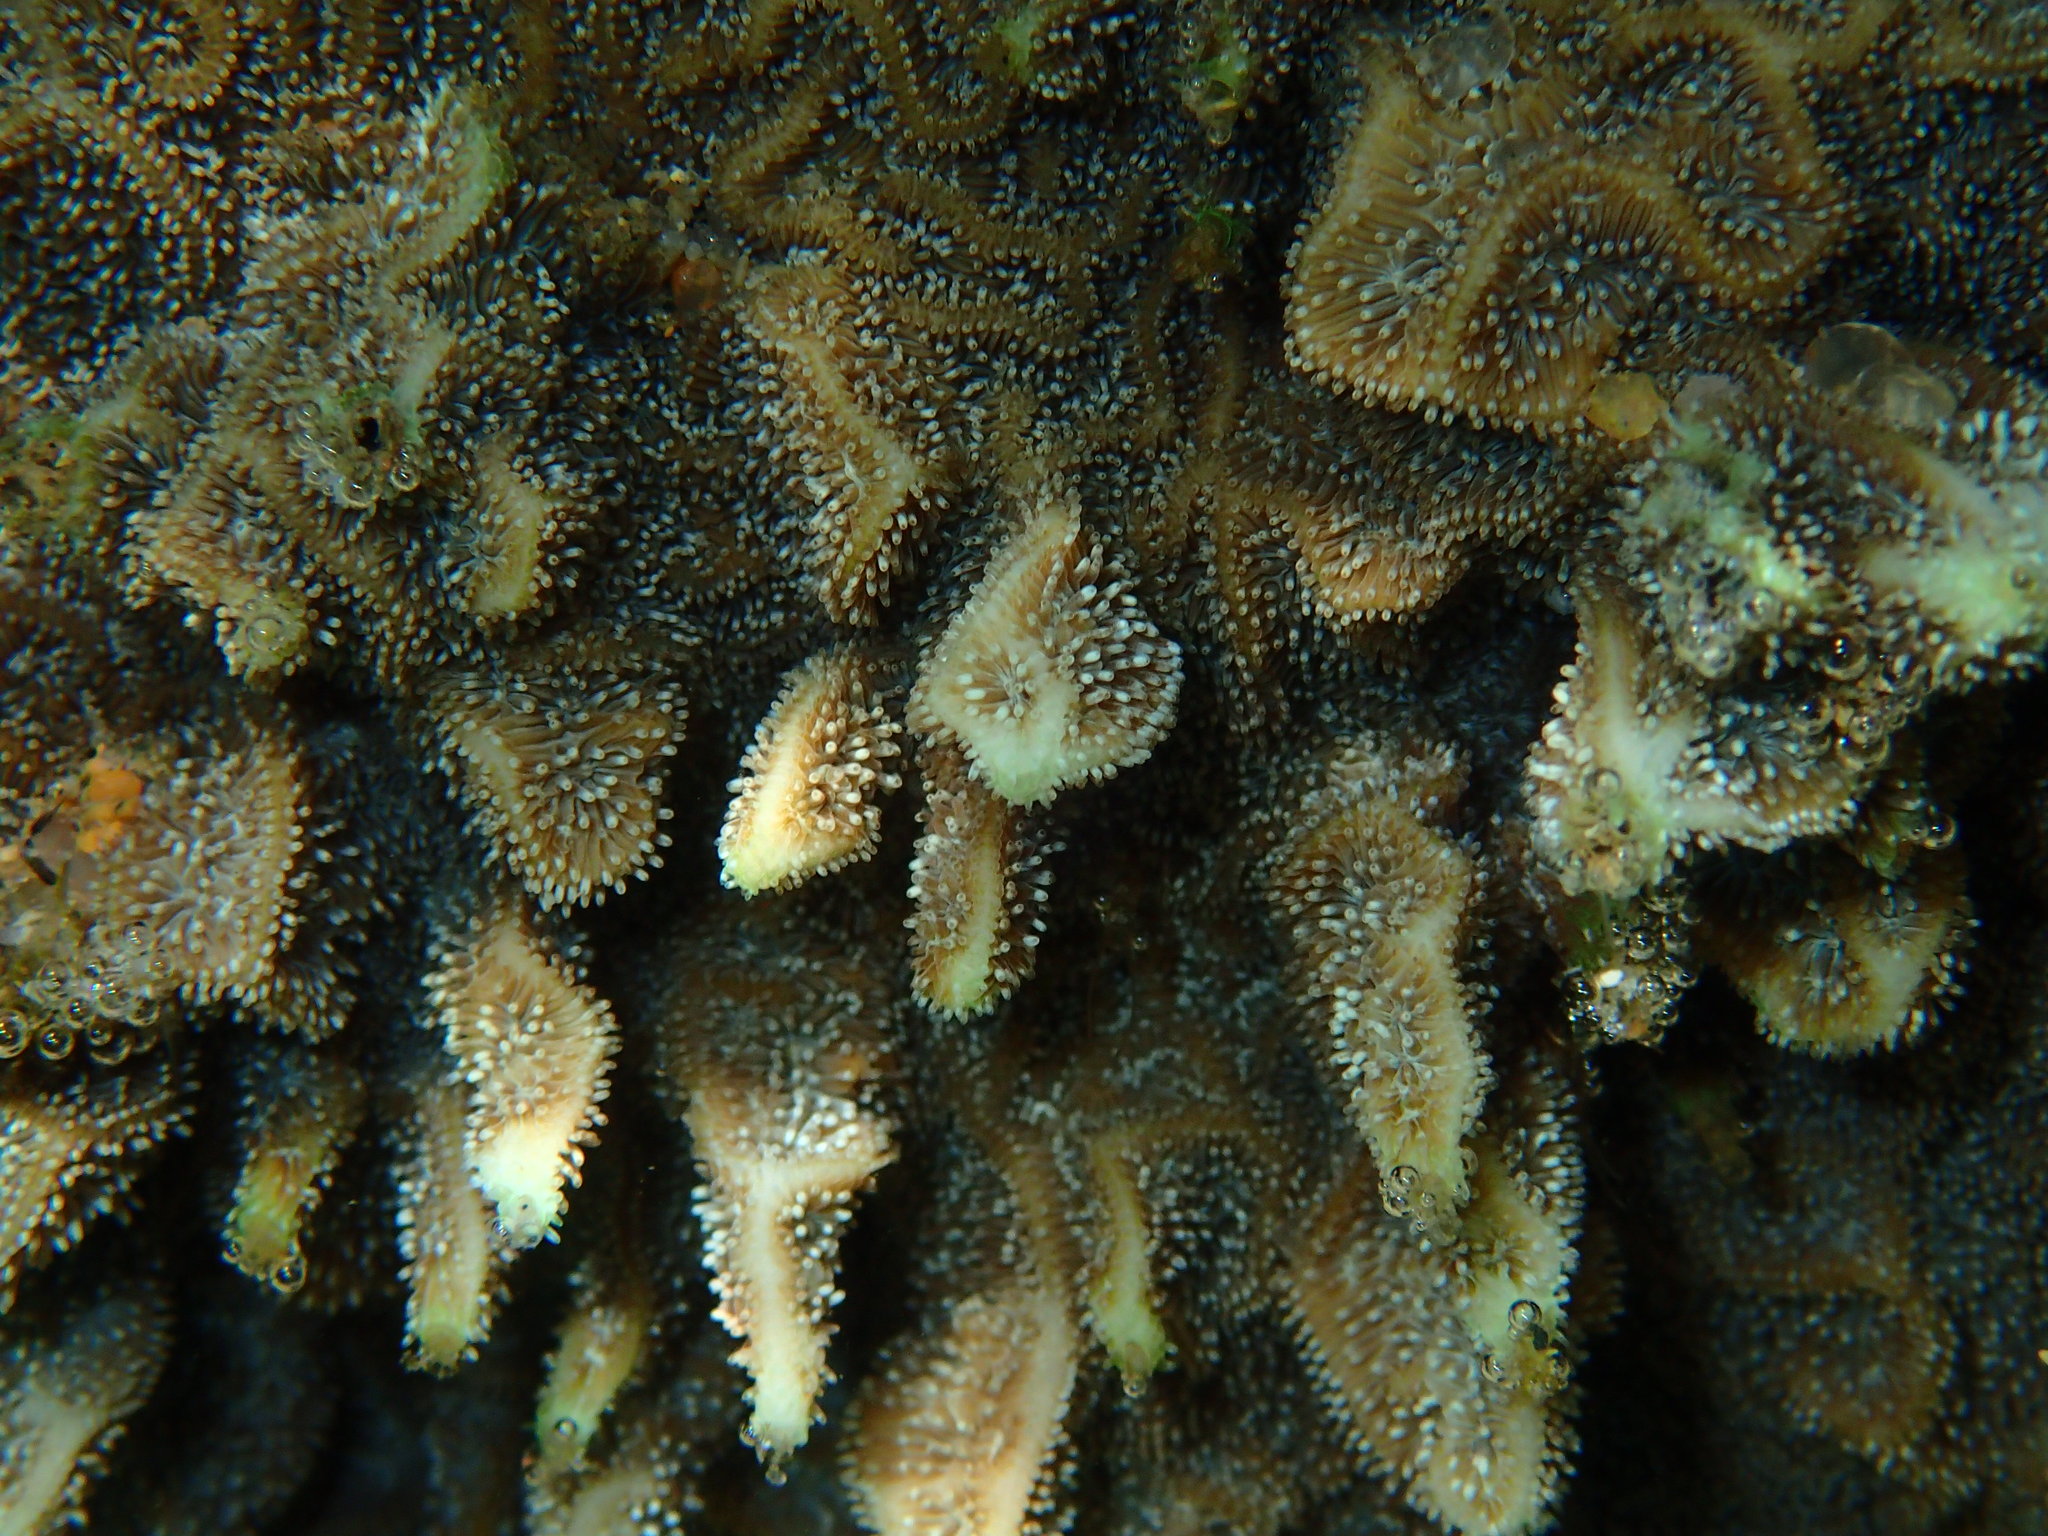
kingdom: Animalia
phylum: Cnidaria
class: Anthozoa
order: Scleractinia
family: Agariciidae
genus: Pavona
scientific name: Pavona varians
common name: Leaf coral
